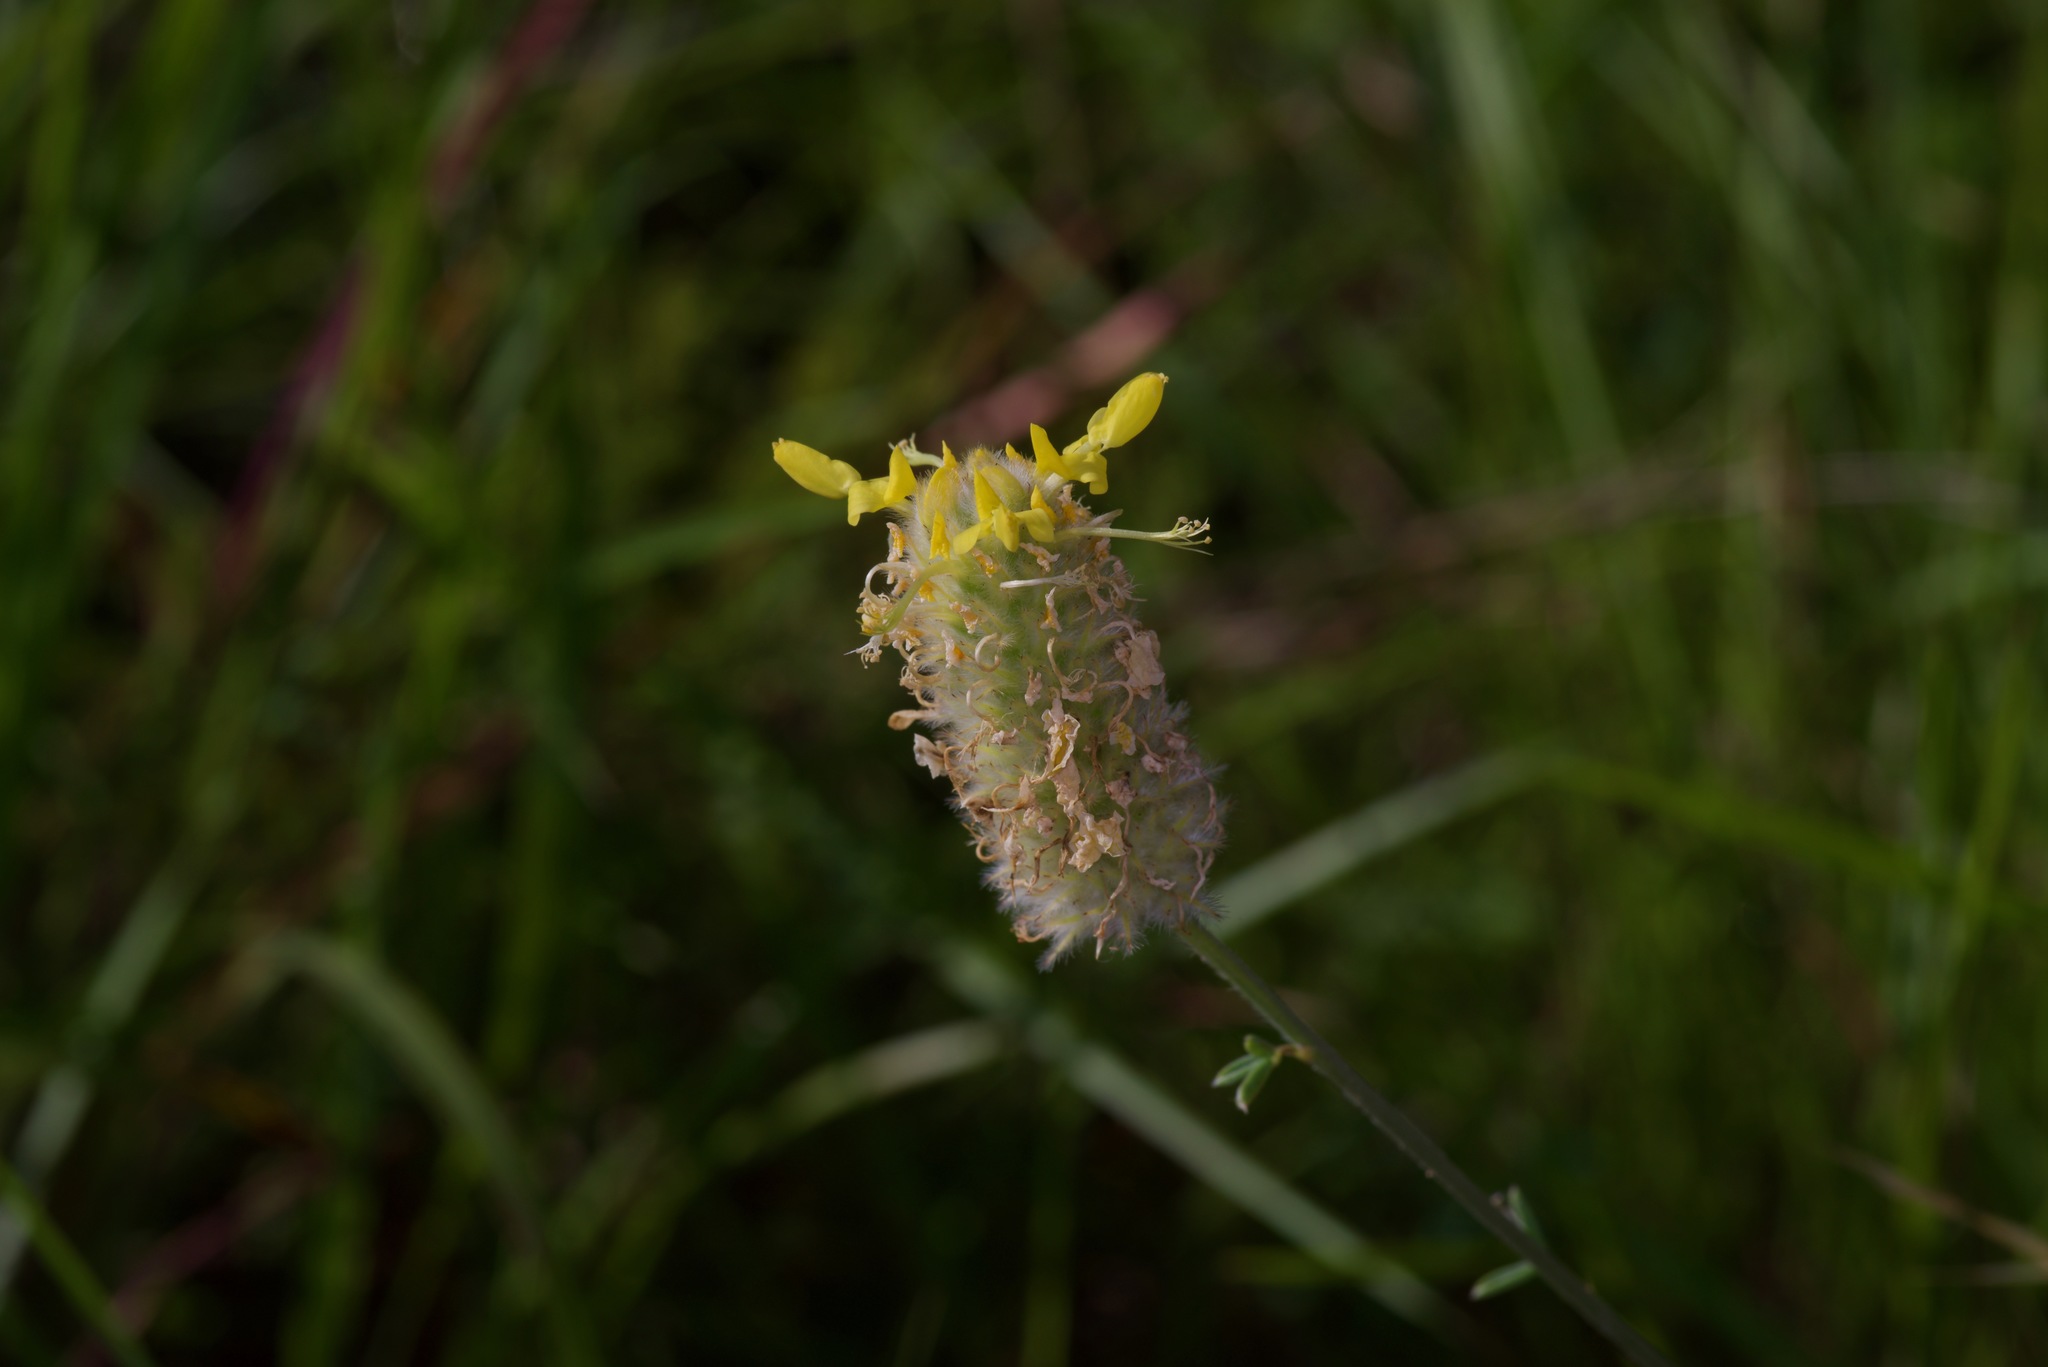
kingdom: Plantae
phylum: Tracheophyta
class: Magnoliopsida
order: Fabales
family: Fabaceae
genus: Dalea
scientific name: Dalea aurea
